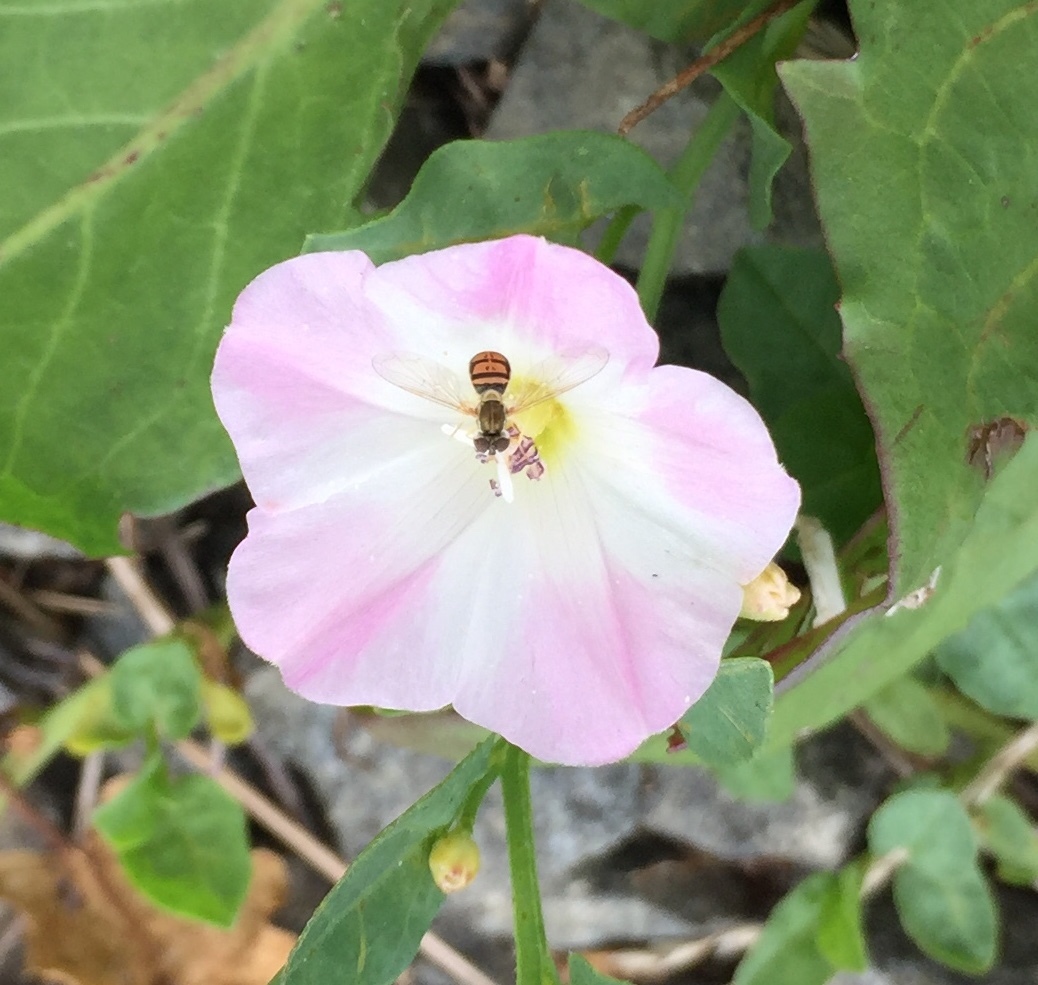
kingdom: Animalia
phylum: Arthropoda
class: Insecta
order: Diptera
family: Syrphidae
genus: Toxomerus
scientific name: Toxomerus marginatus
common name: Syrphid fly
